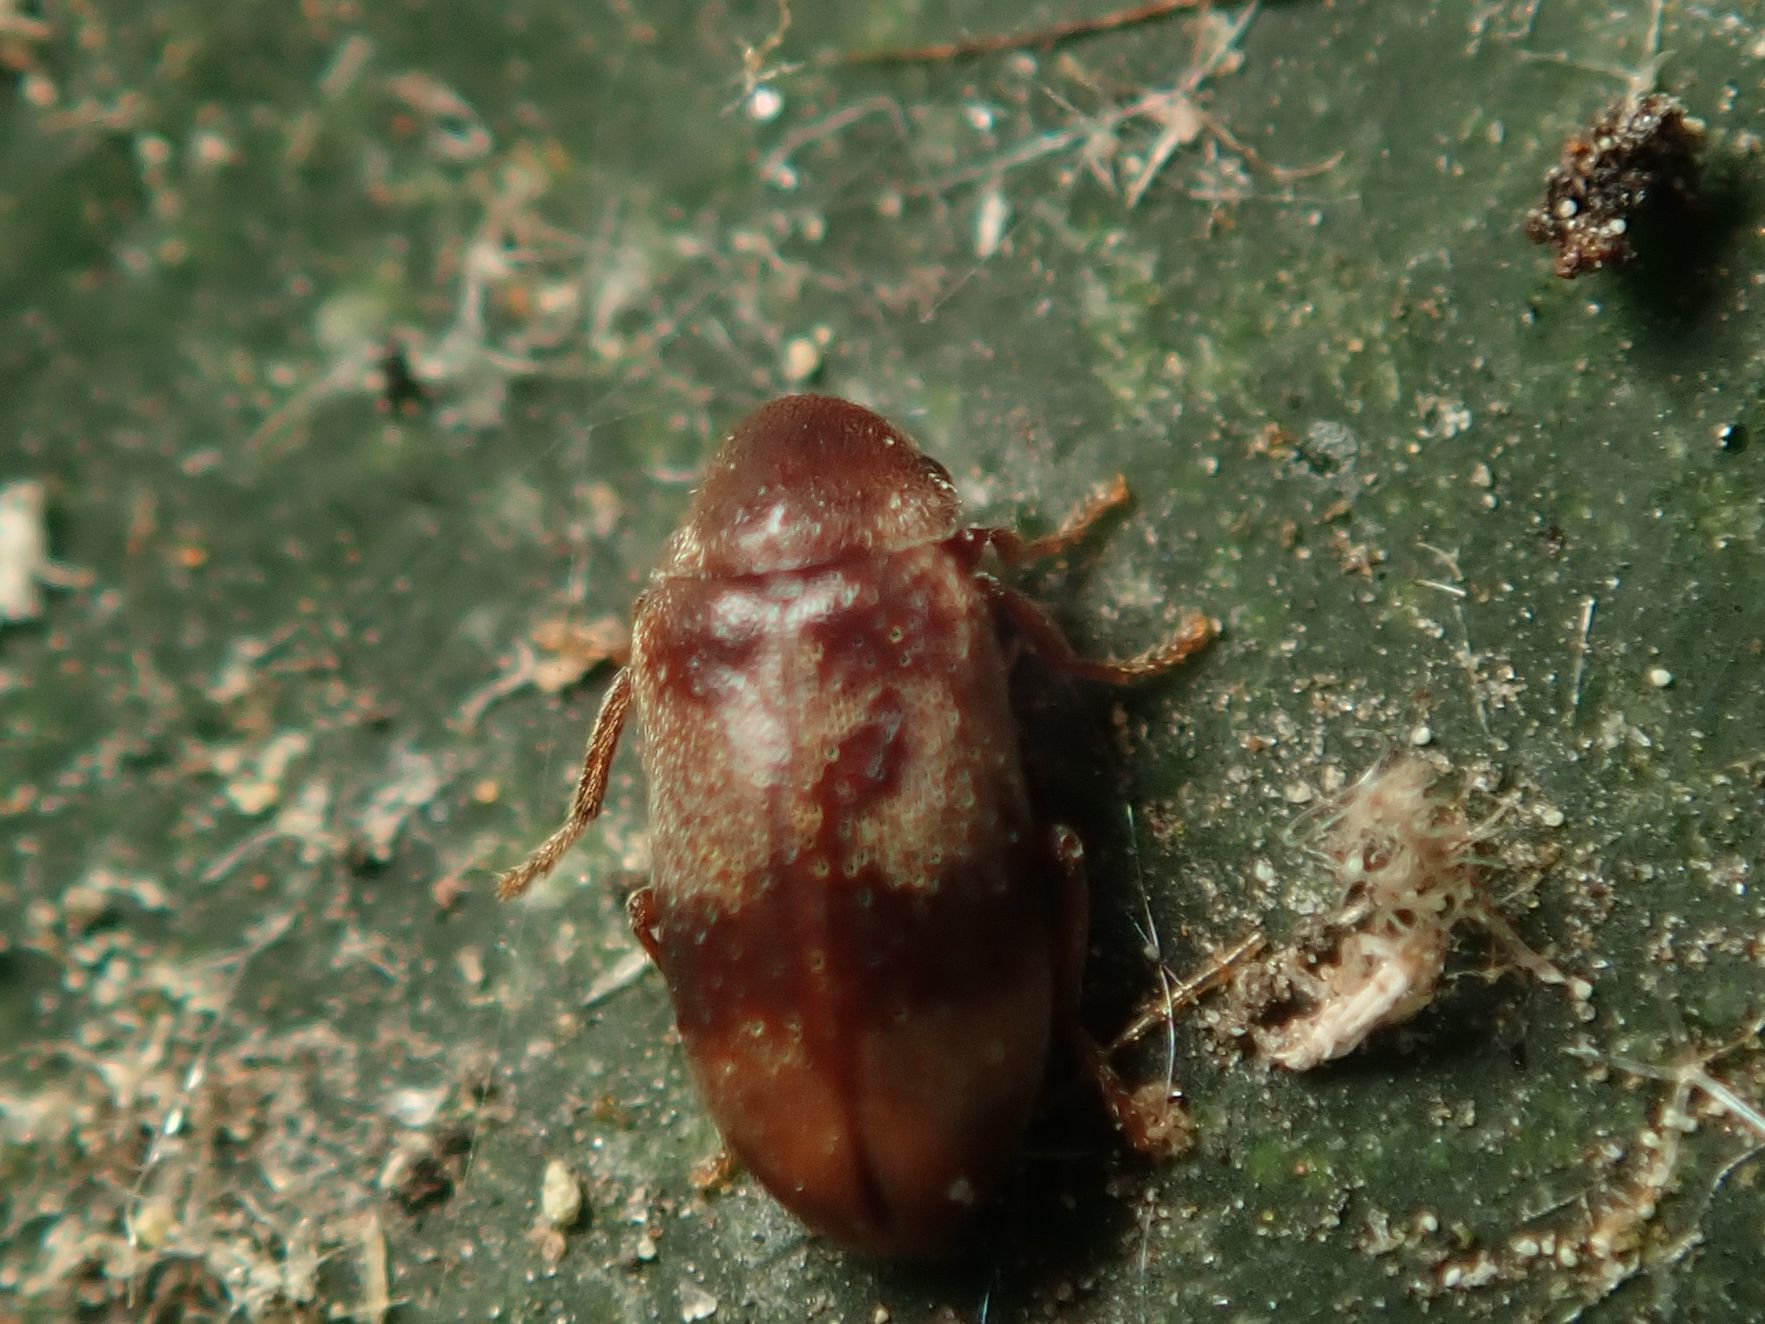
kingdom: Animalia
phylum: Arthropoda
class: Insecta
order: Coleoptera
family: Ptinidae
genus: Ochina
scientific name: Ochina ptinoides
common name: Ivy boring beetle
